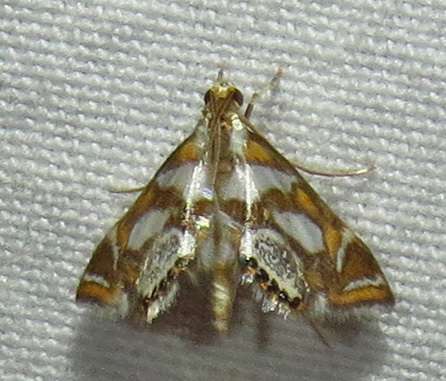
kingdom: Animalia
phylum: Arthropoda
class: Insecta
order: Lepidoptera
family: Crambidae
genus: Chrysendeton
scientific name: Chrysendeton medicinalis
